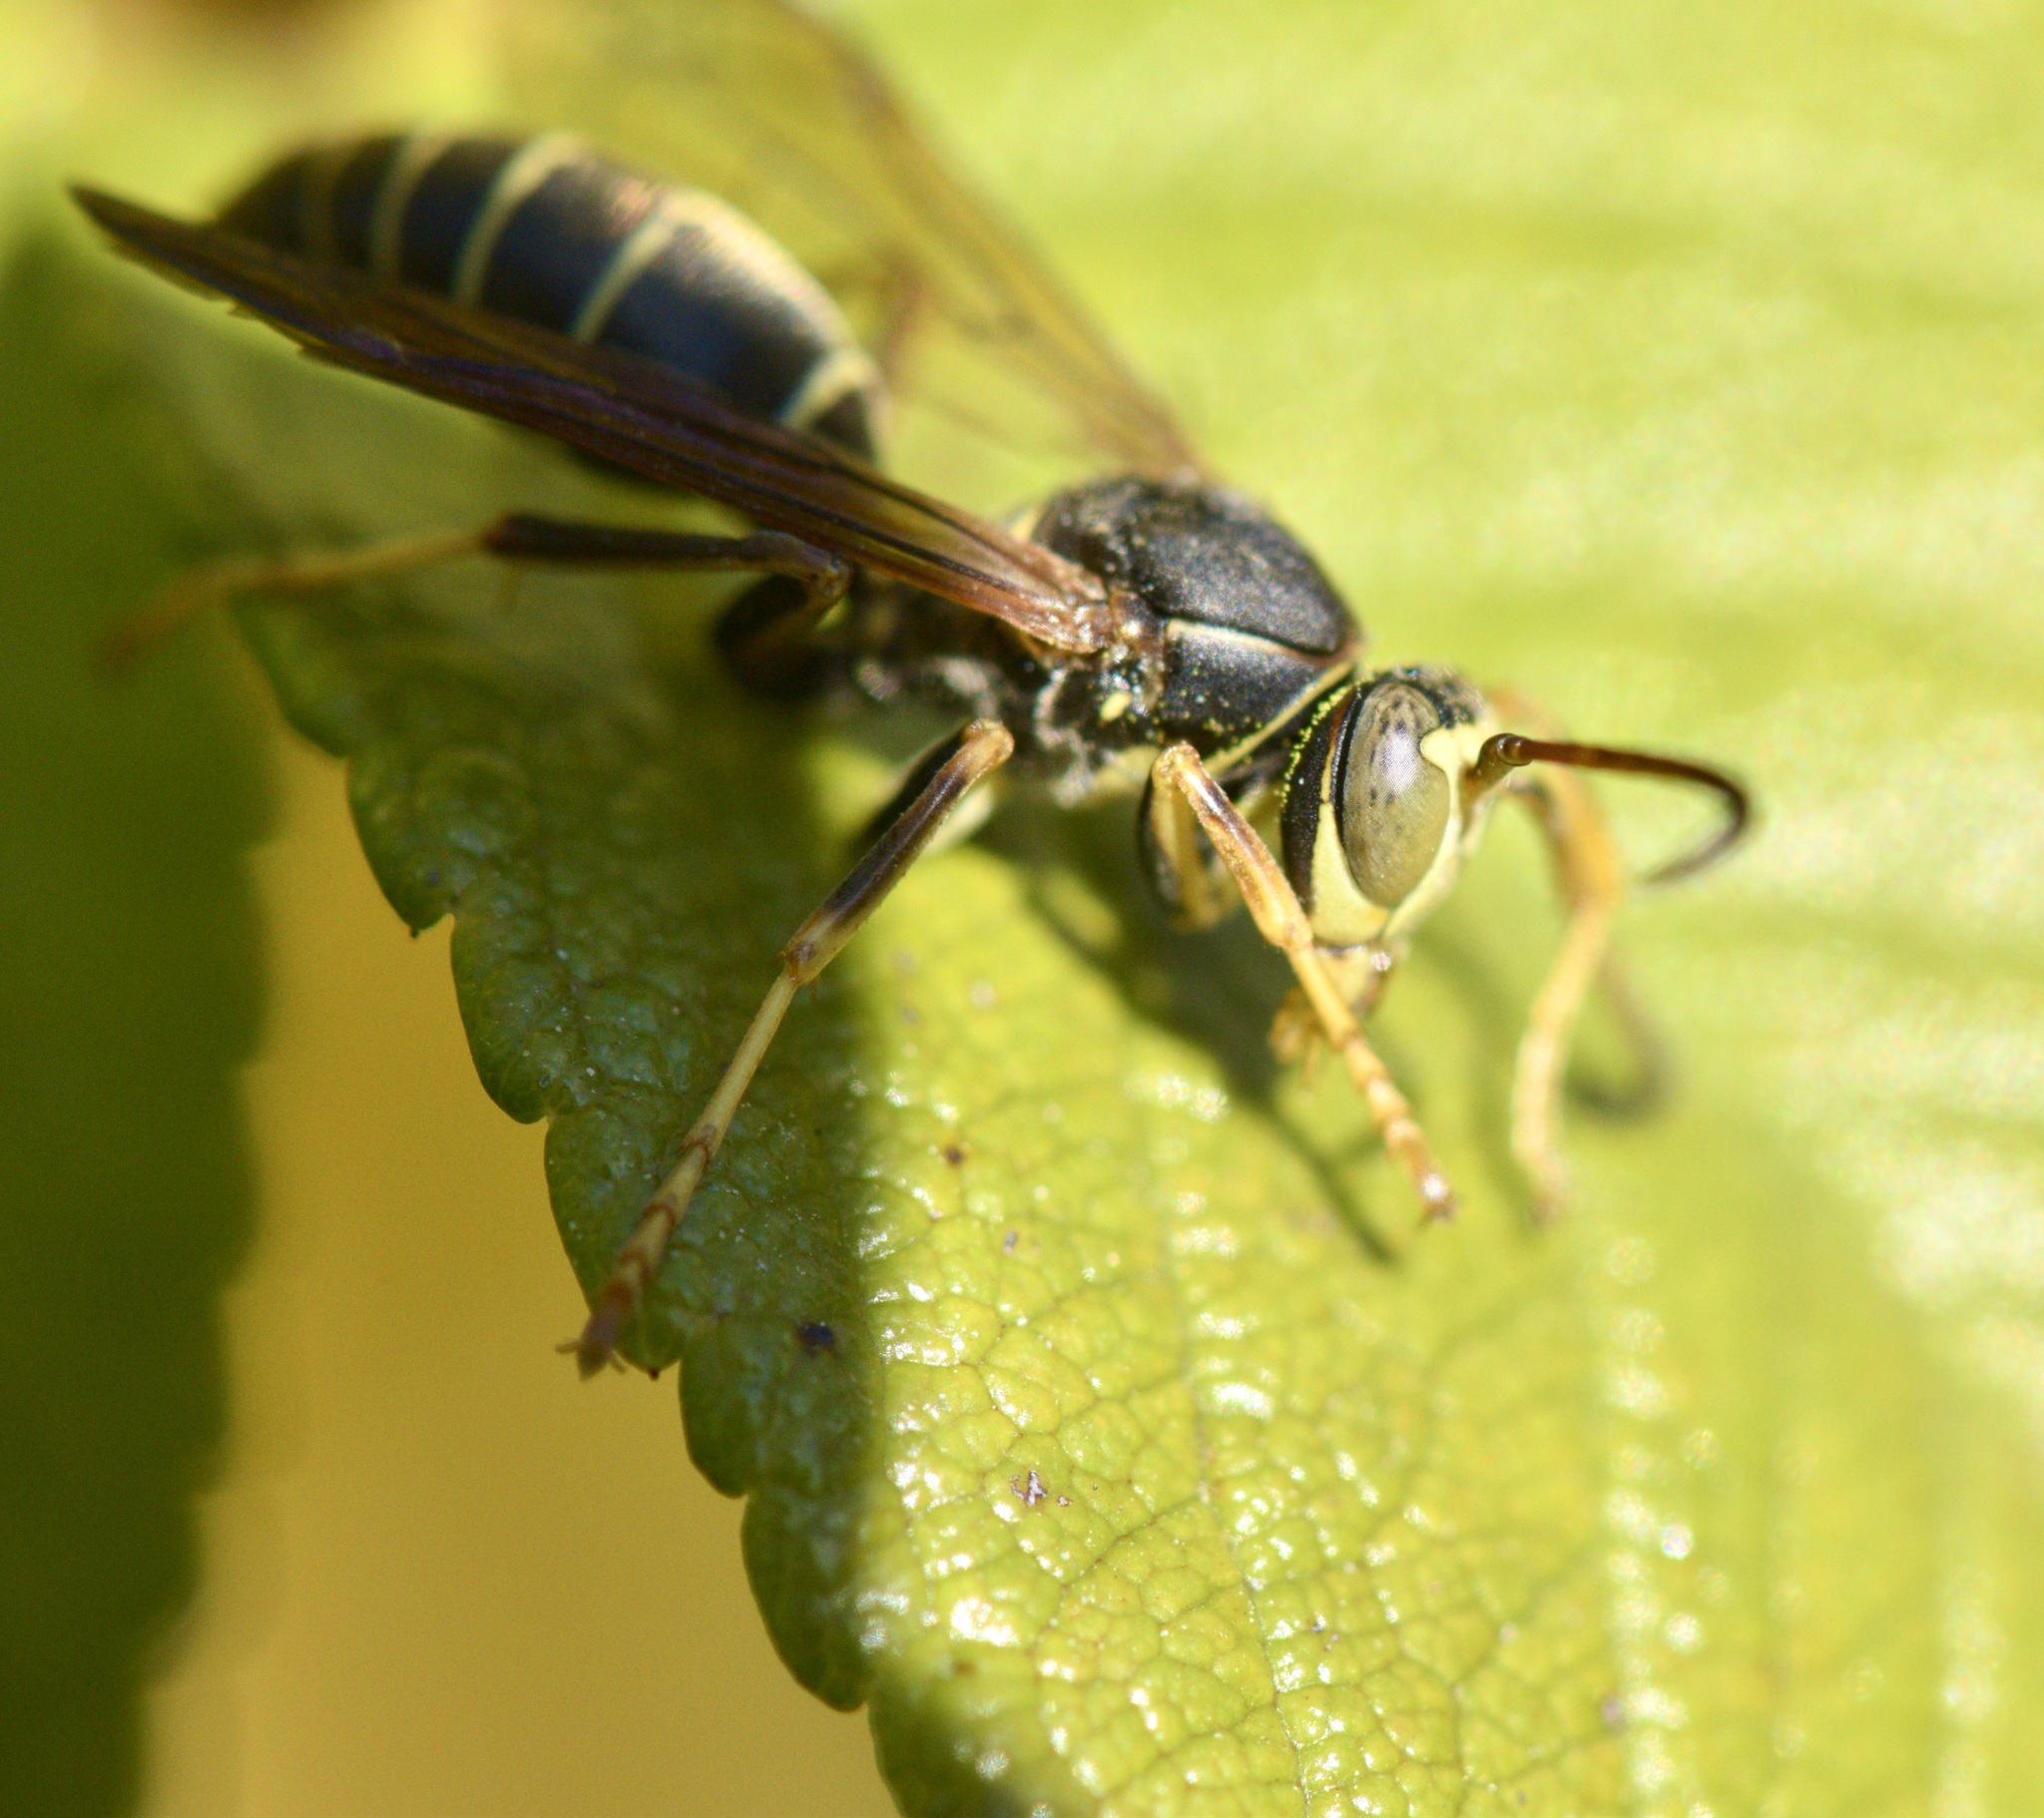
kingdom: Animalia
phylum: Arthropoda
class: Insecta
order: Hymenoptera
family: Eumenidae
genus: Polistes
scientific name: Polistes fuscatus
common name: Dark paper wasp
